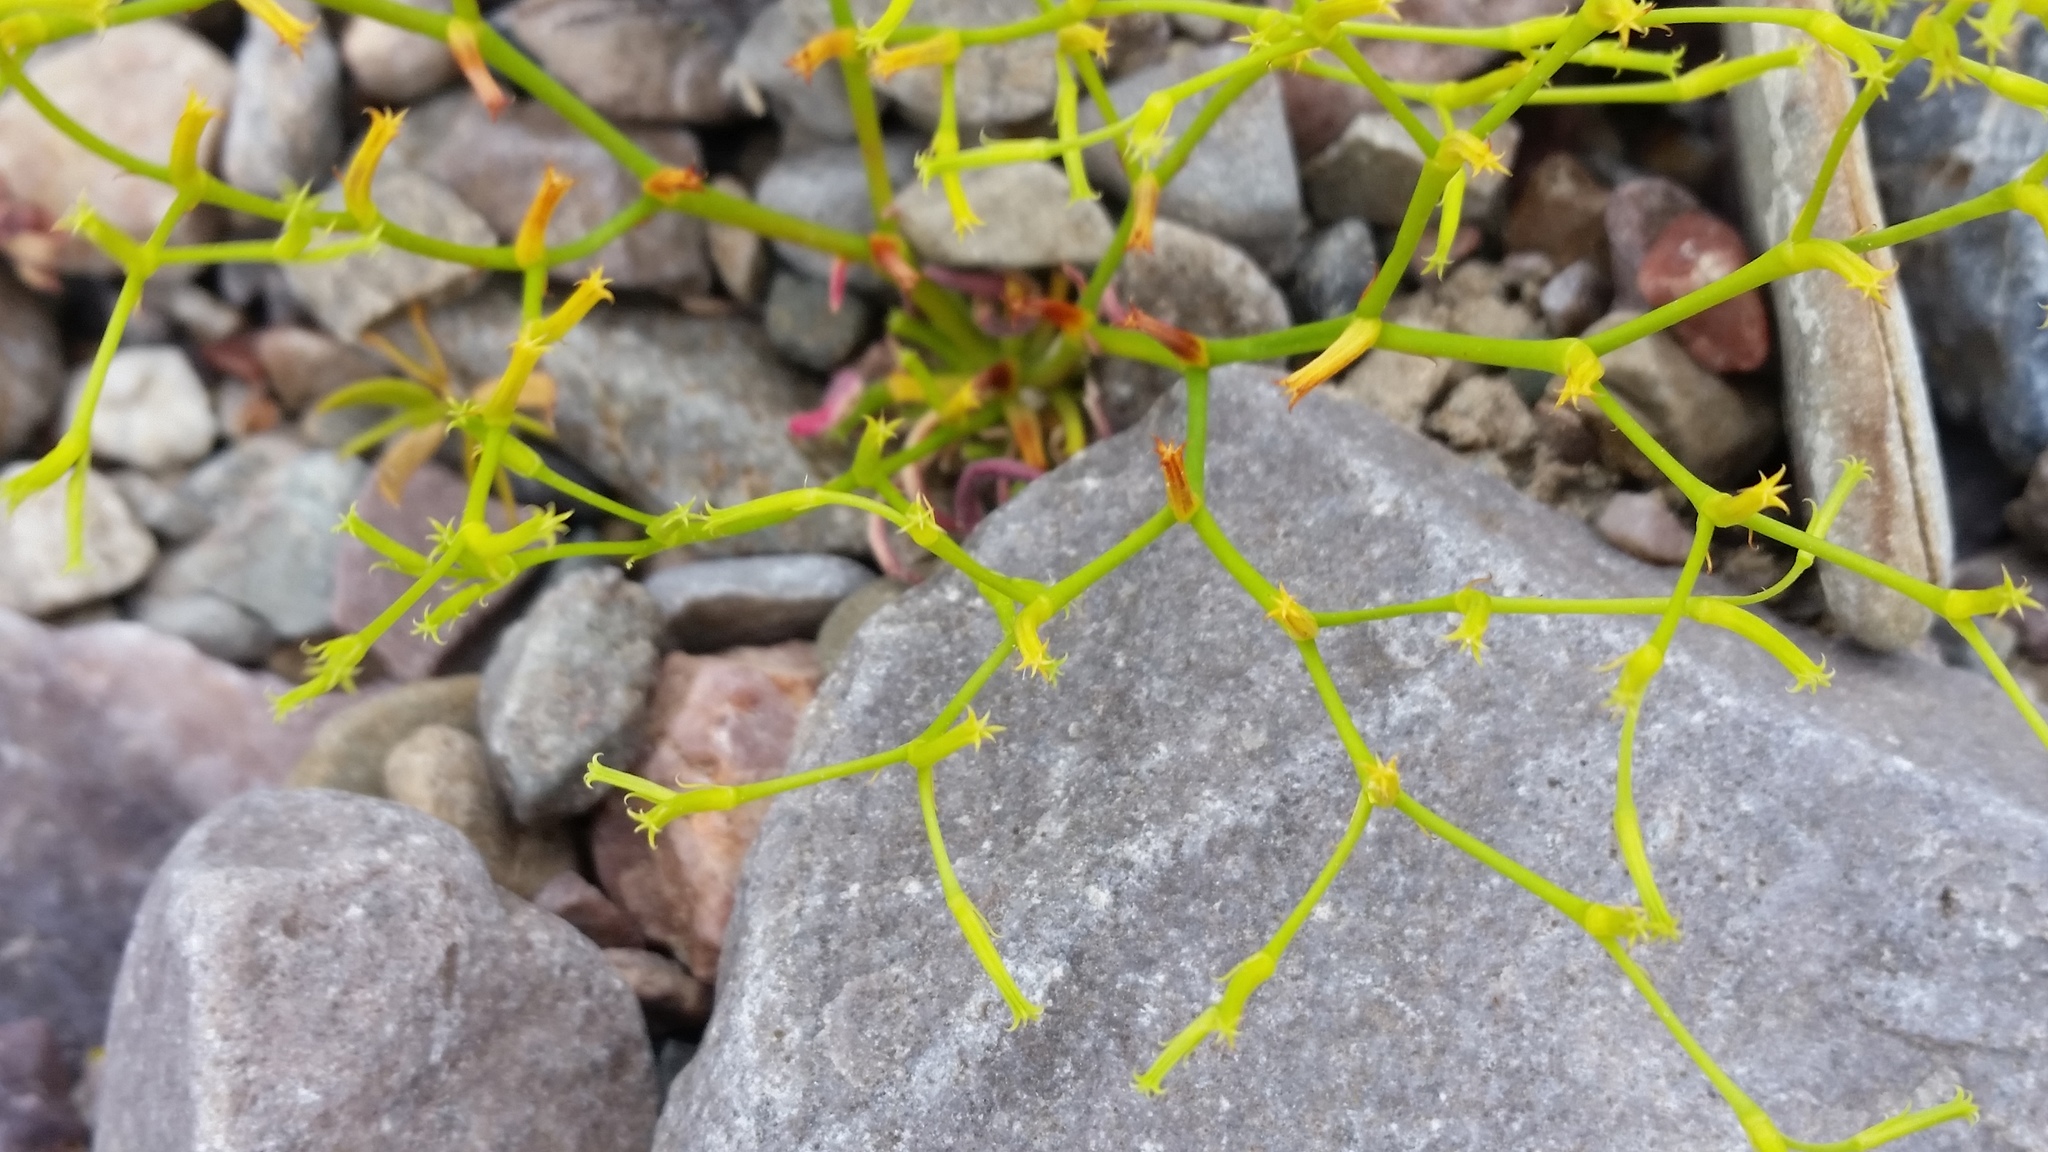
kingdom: Plantae
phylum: Tracheophyta
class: Magnoliopsida
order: Caryophyllales
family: Polygonaceae
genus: Chorizanthe
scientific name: Chorizanthe brevicornu
